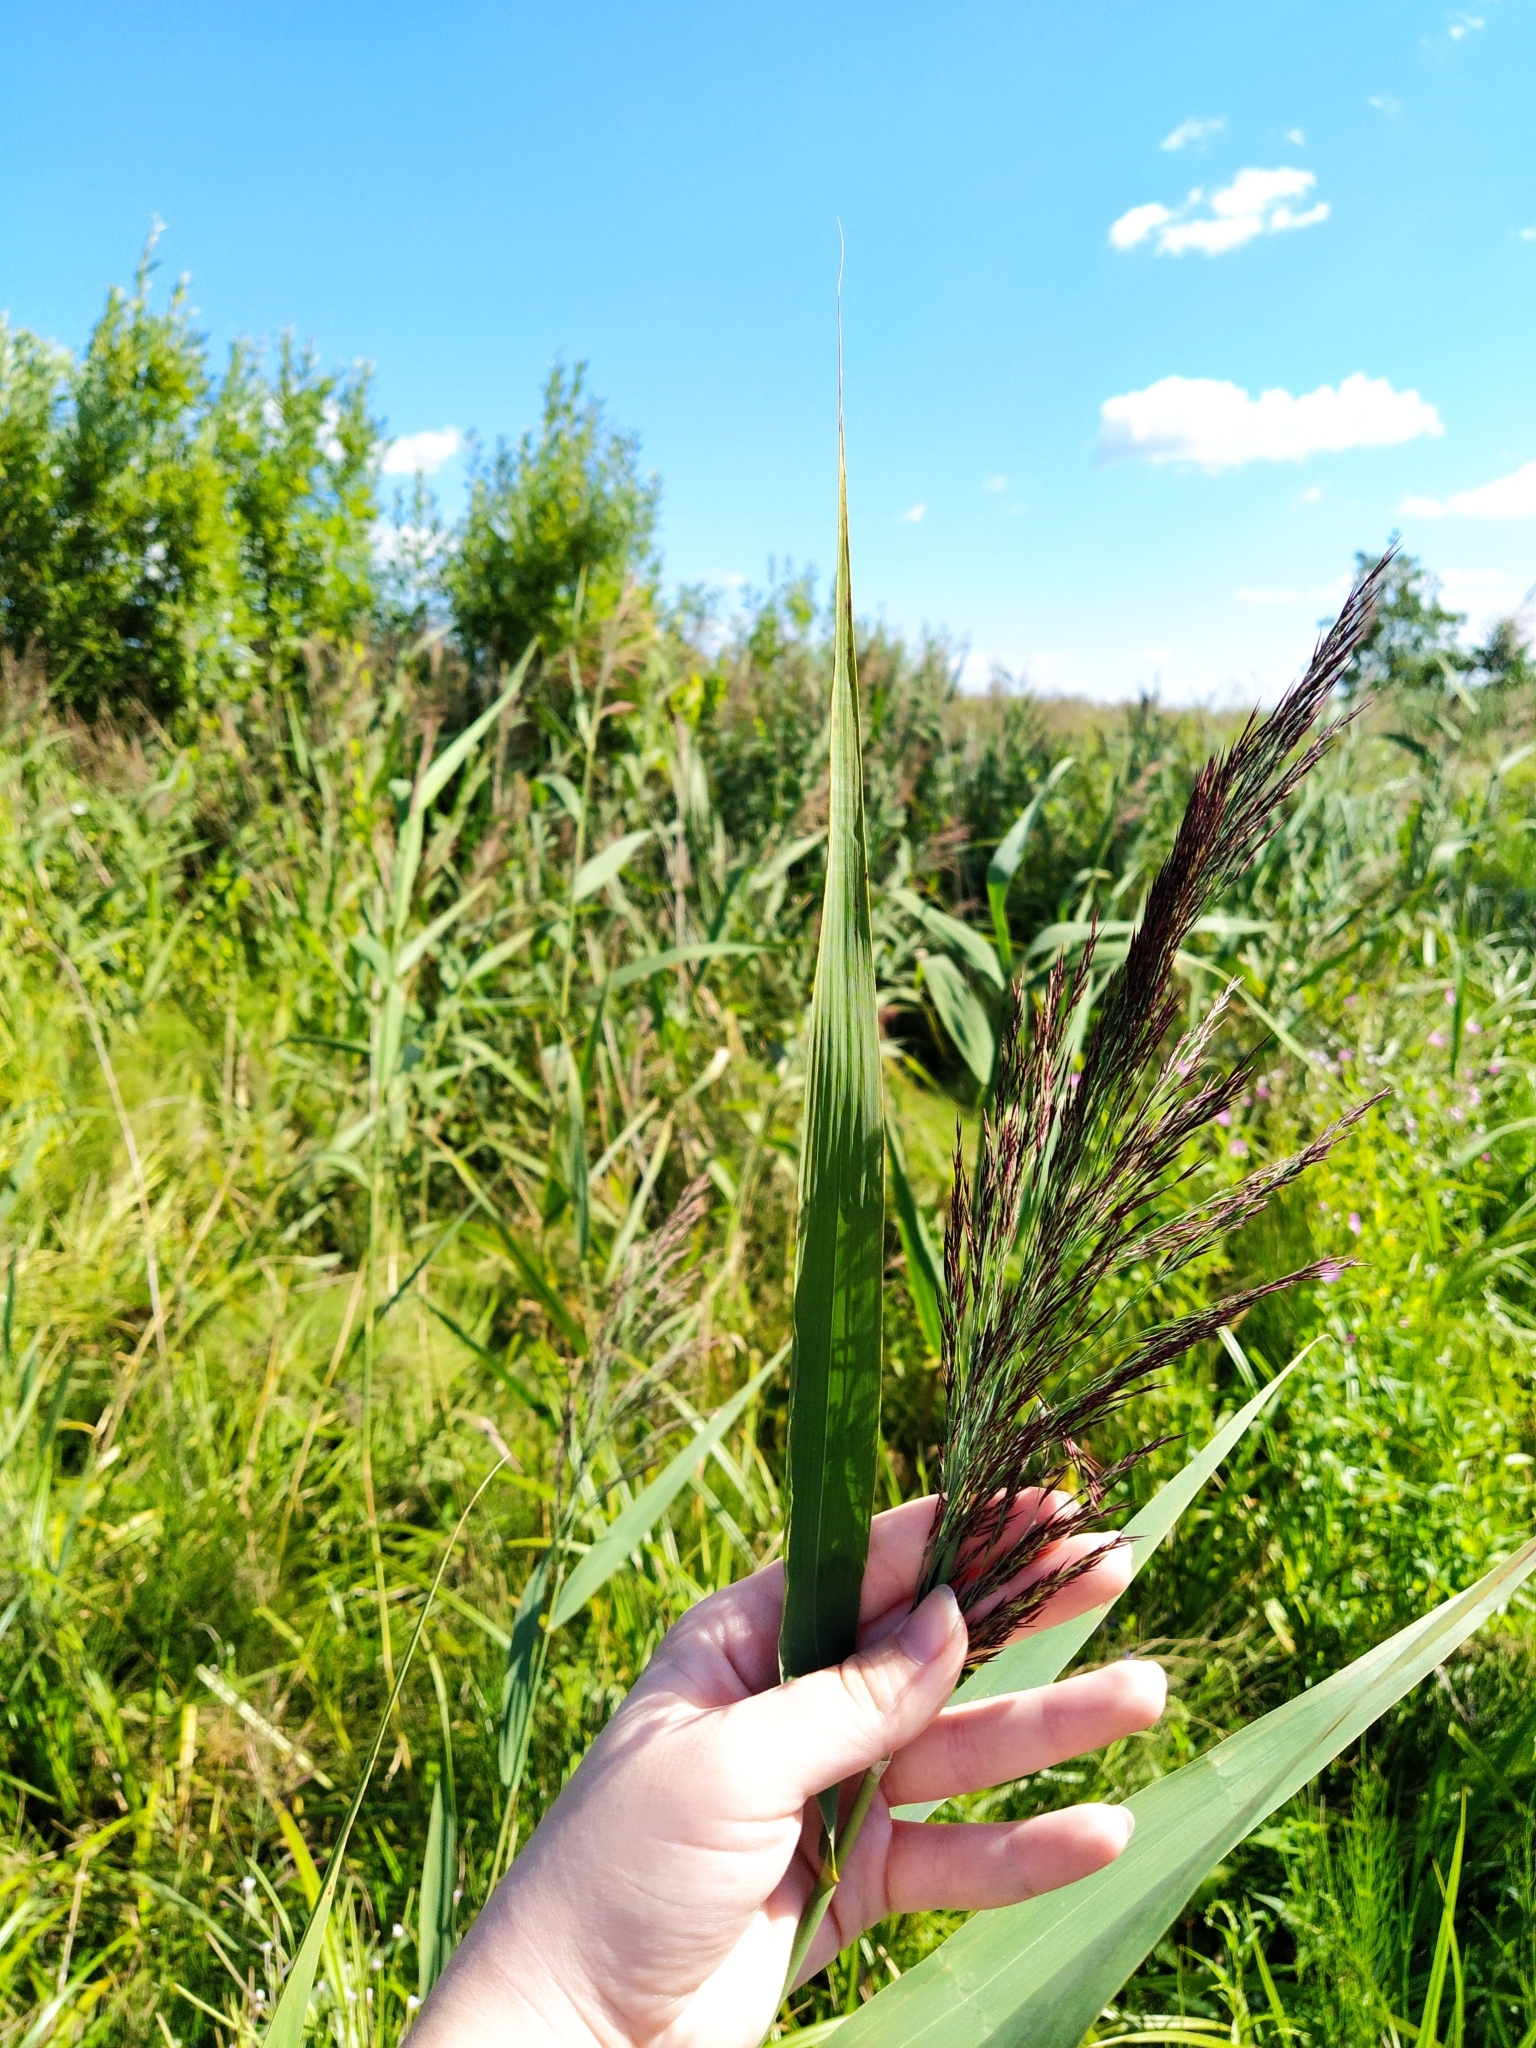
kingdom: Plantae
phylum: Tracheophyta
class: Liliopsida
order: Poales
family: Poaceae
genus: Phragmites
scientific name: Phragmites australis
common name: Common reed
